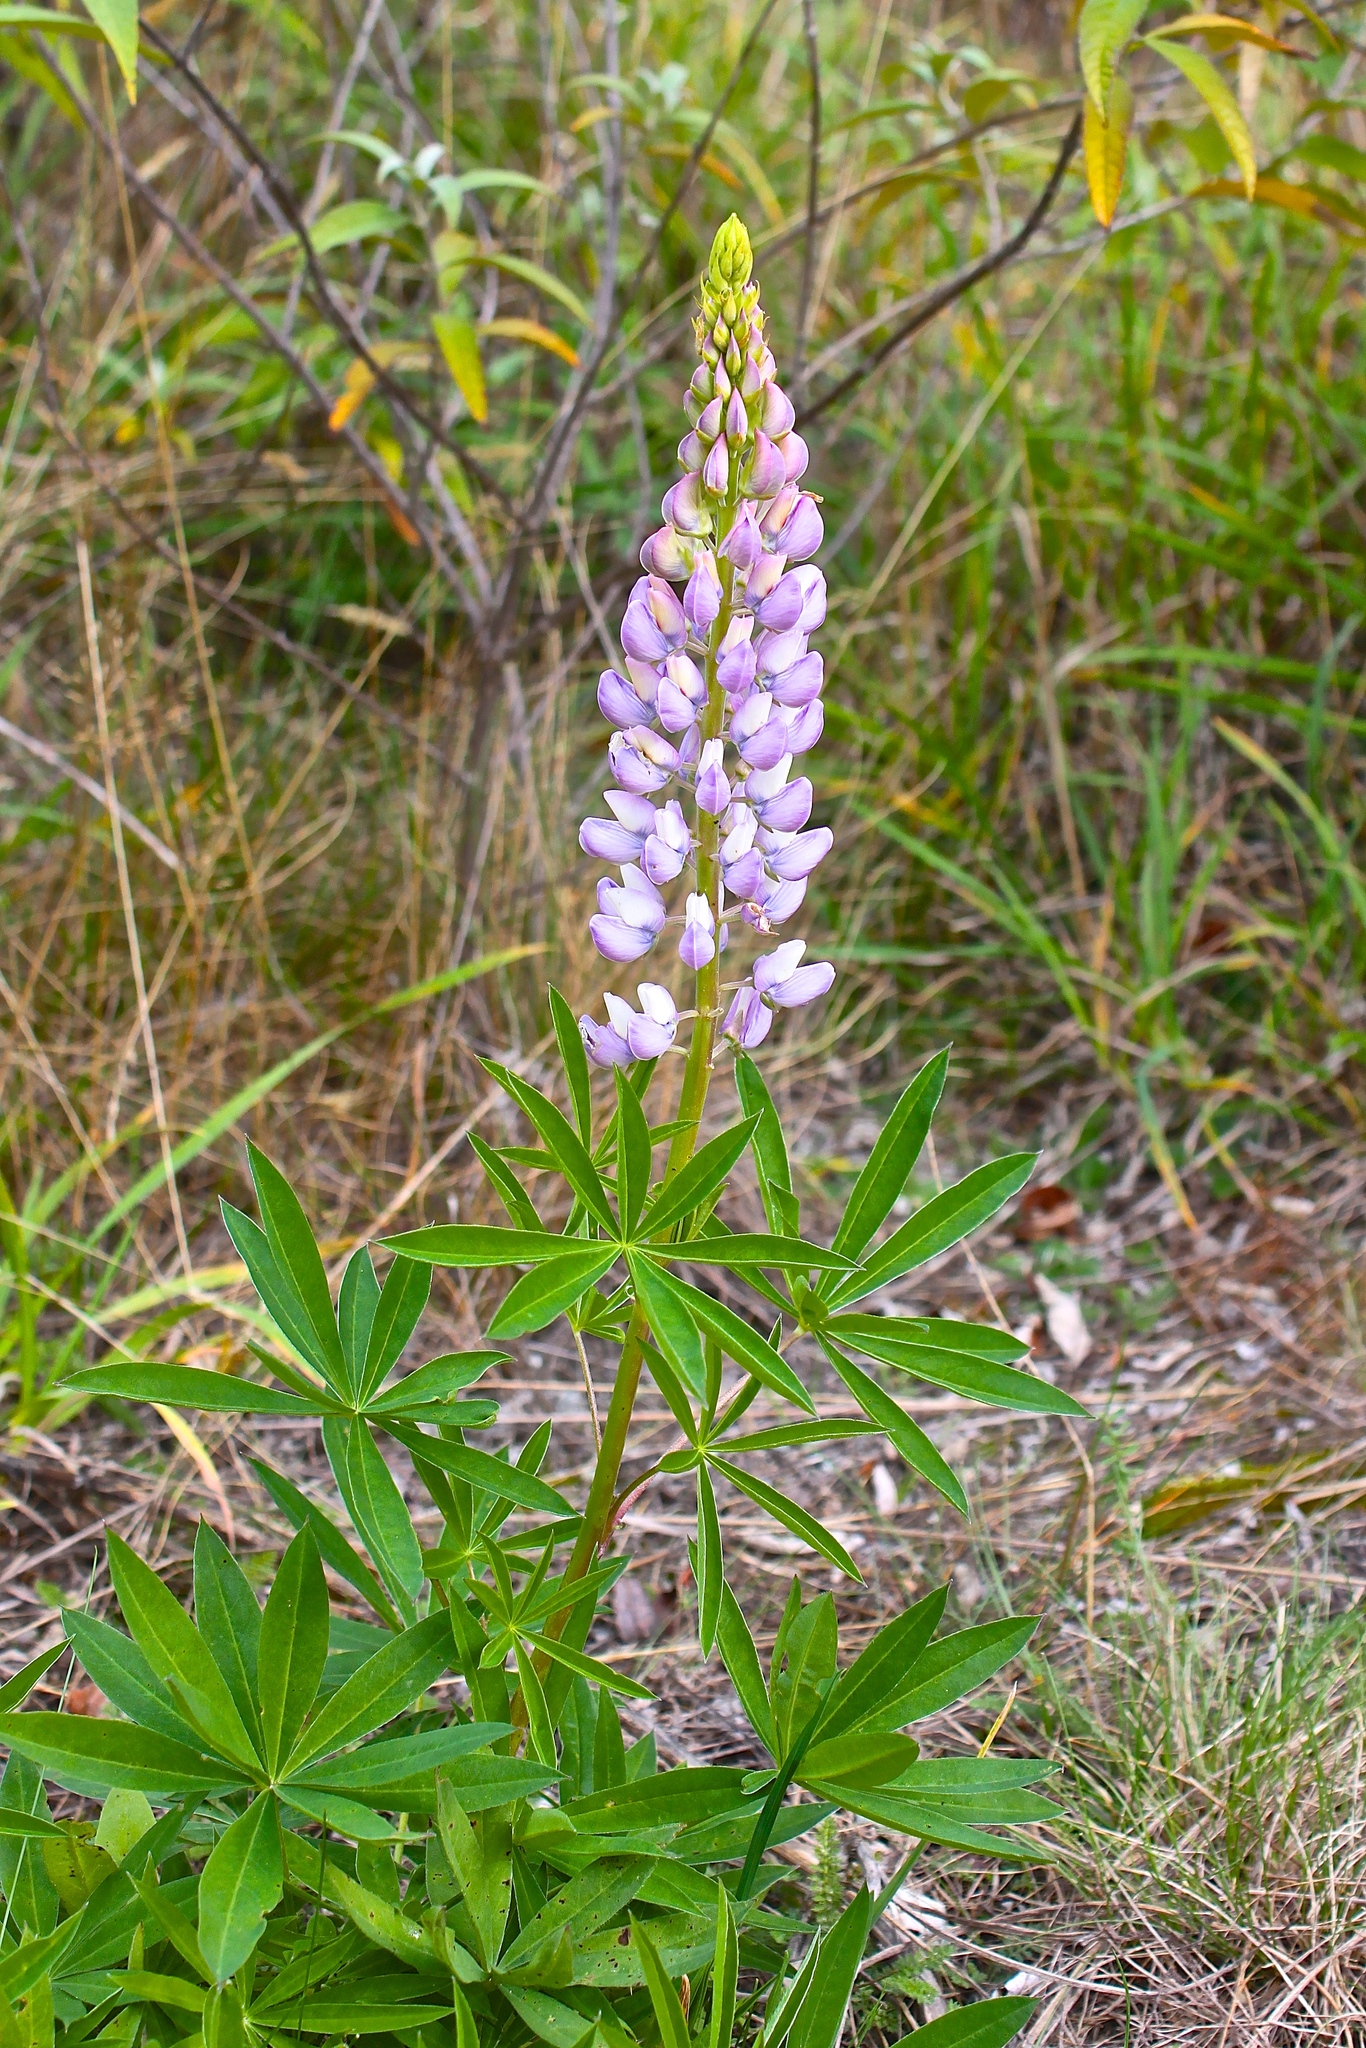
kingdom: Plantae
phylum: Tracheophyta
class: Magnoliopsida
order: Fabales
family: Fabaceae
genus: Lupinus
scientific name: Lupinus polyphyllus
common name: Garden lupin
